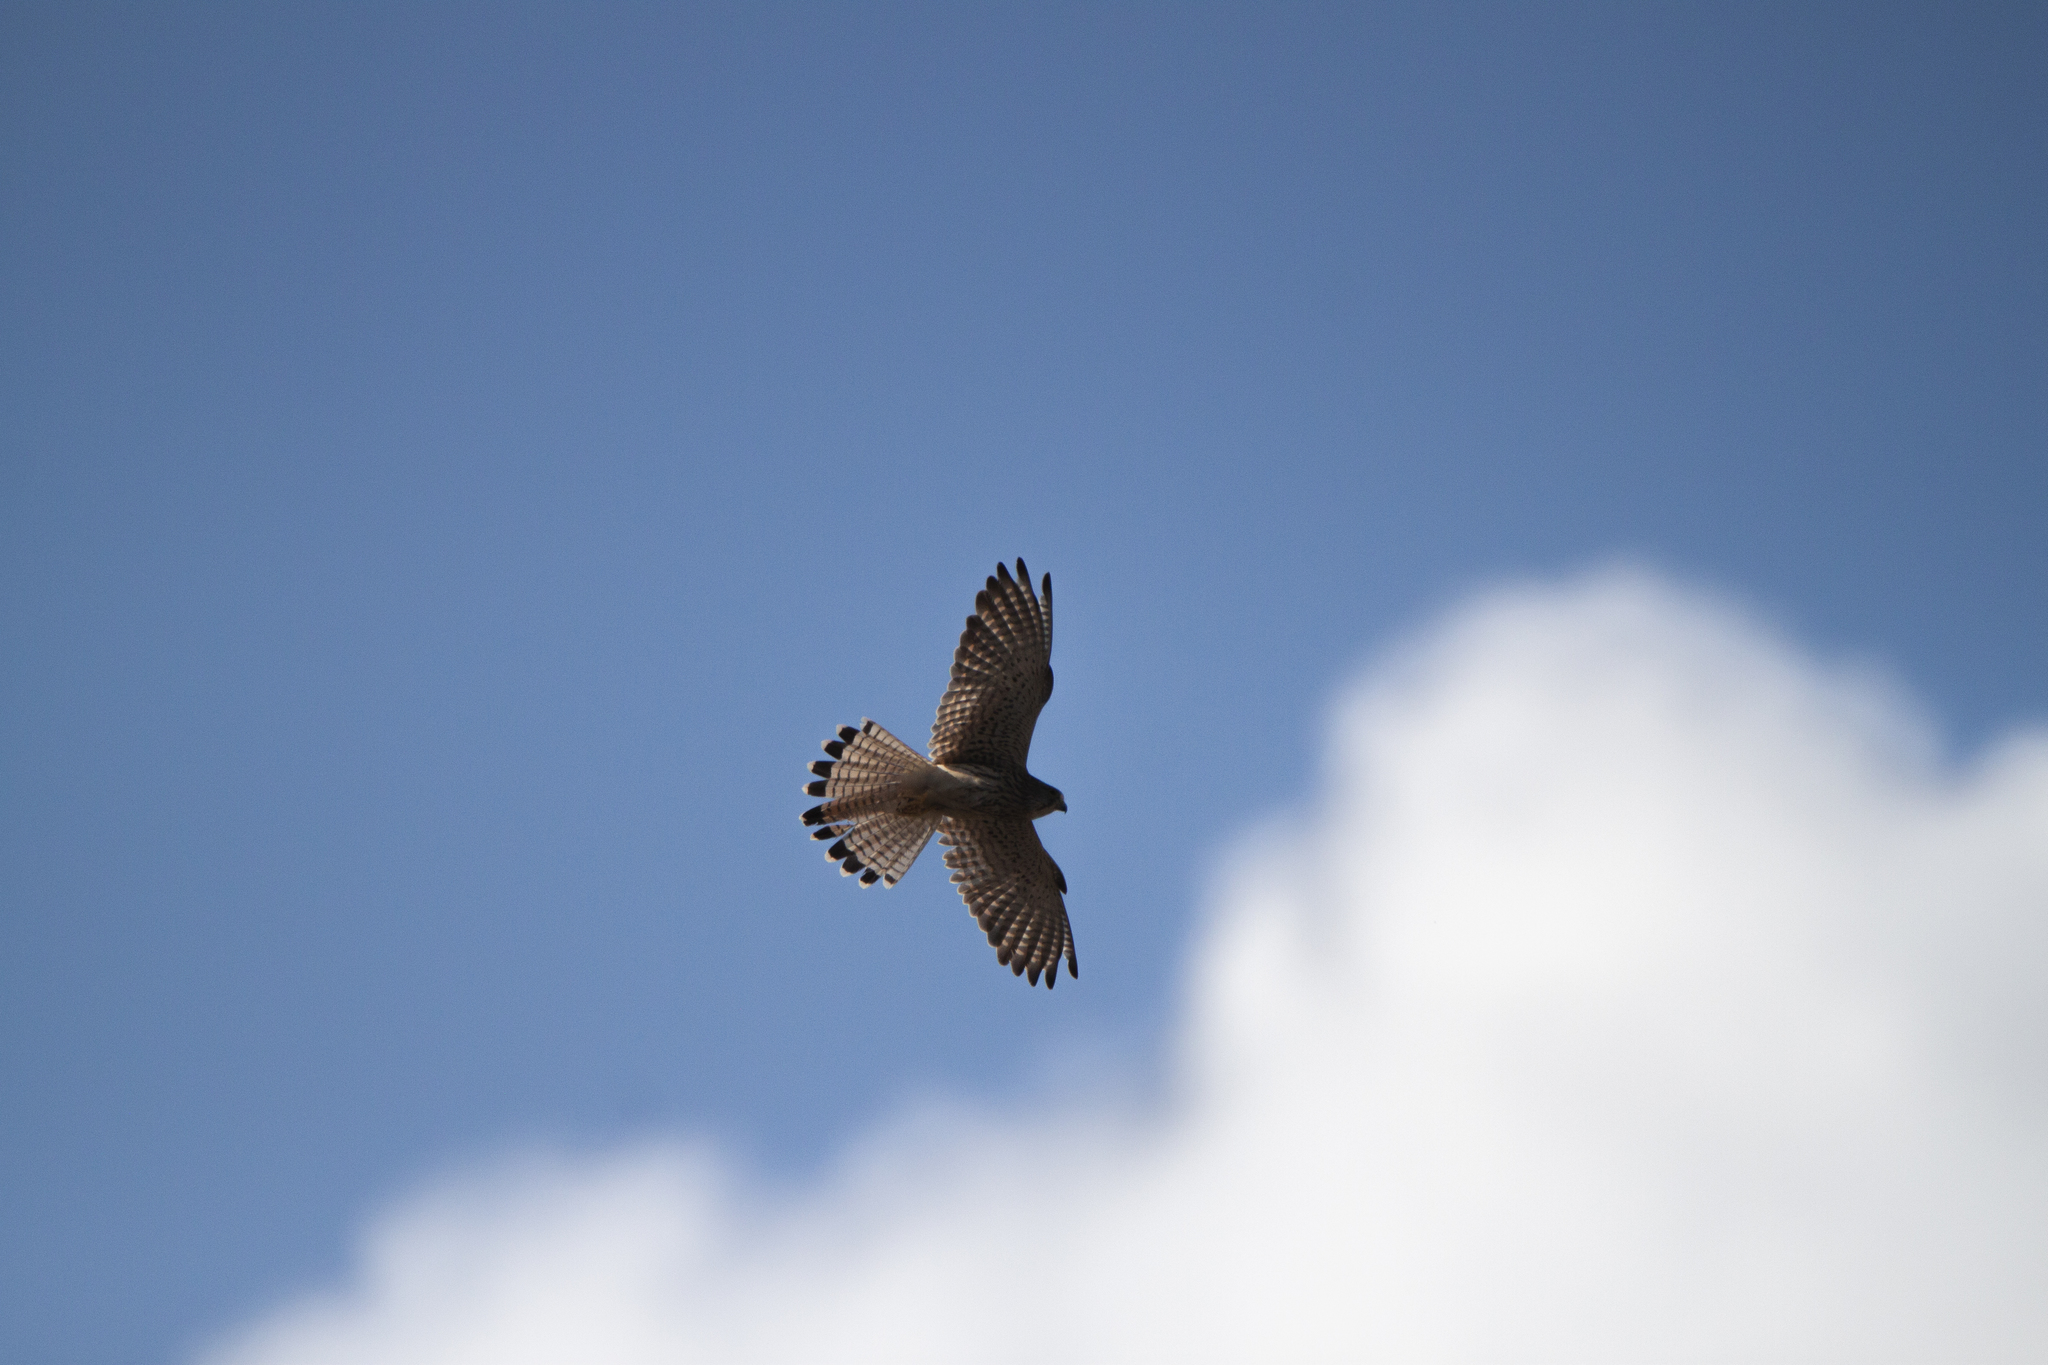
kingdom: Animalia
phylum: Chordata
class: Aves
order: Falconiformes
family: Falconidae
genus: Falco
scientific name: Falco tinnunculus
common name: Common kestrel
